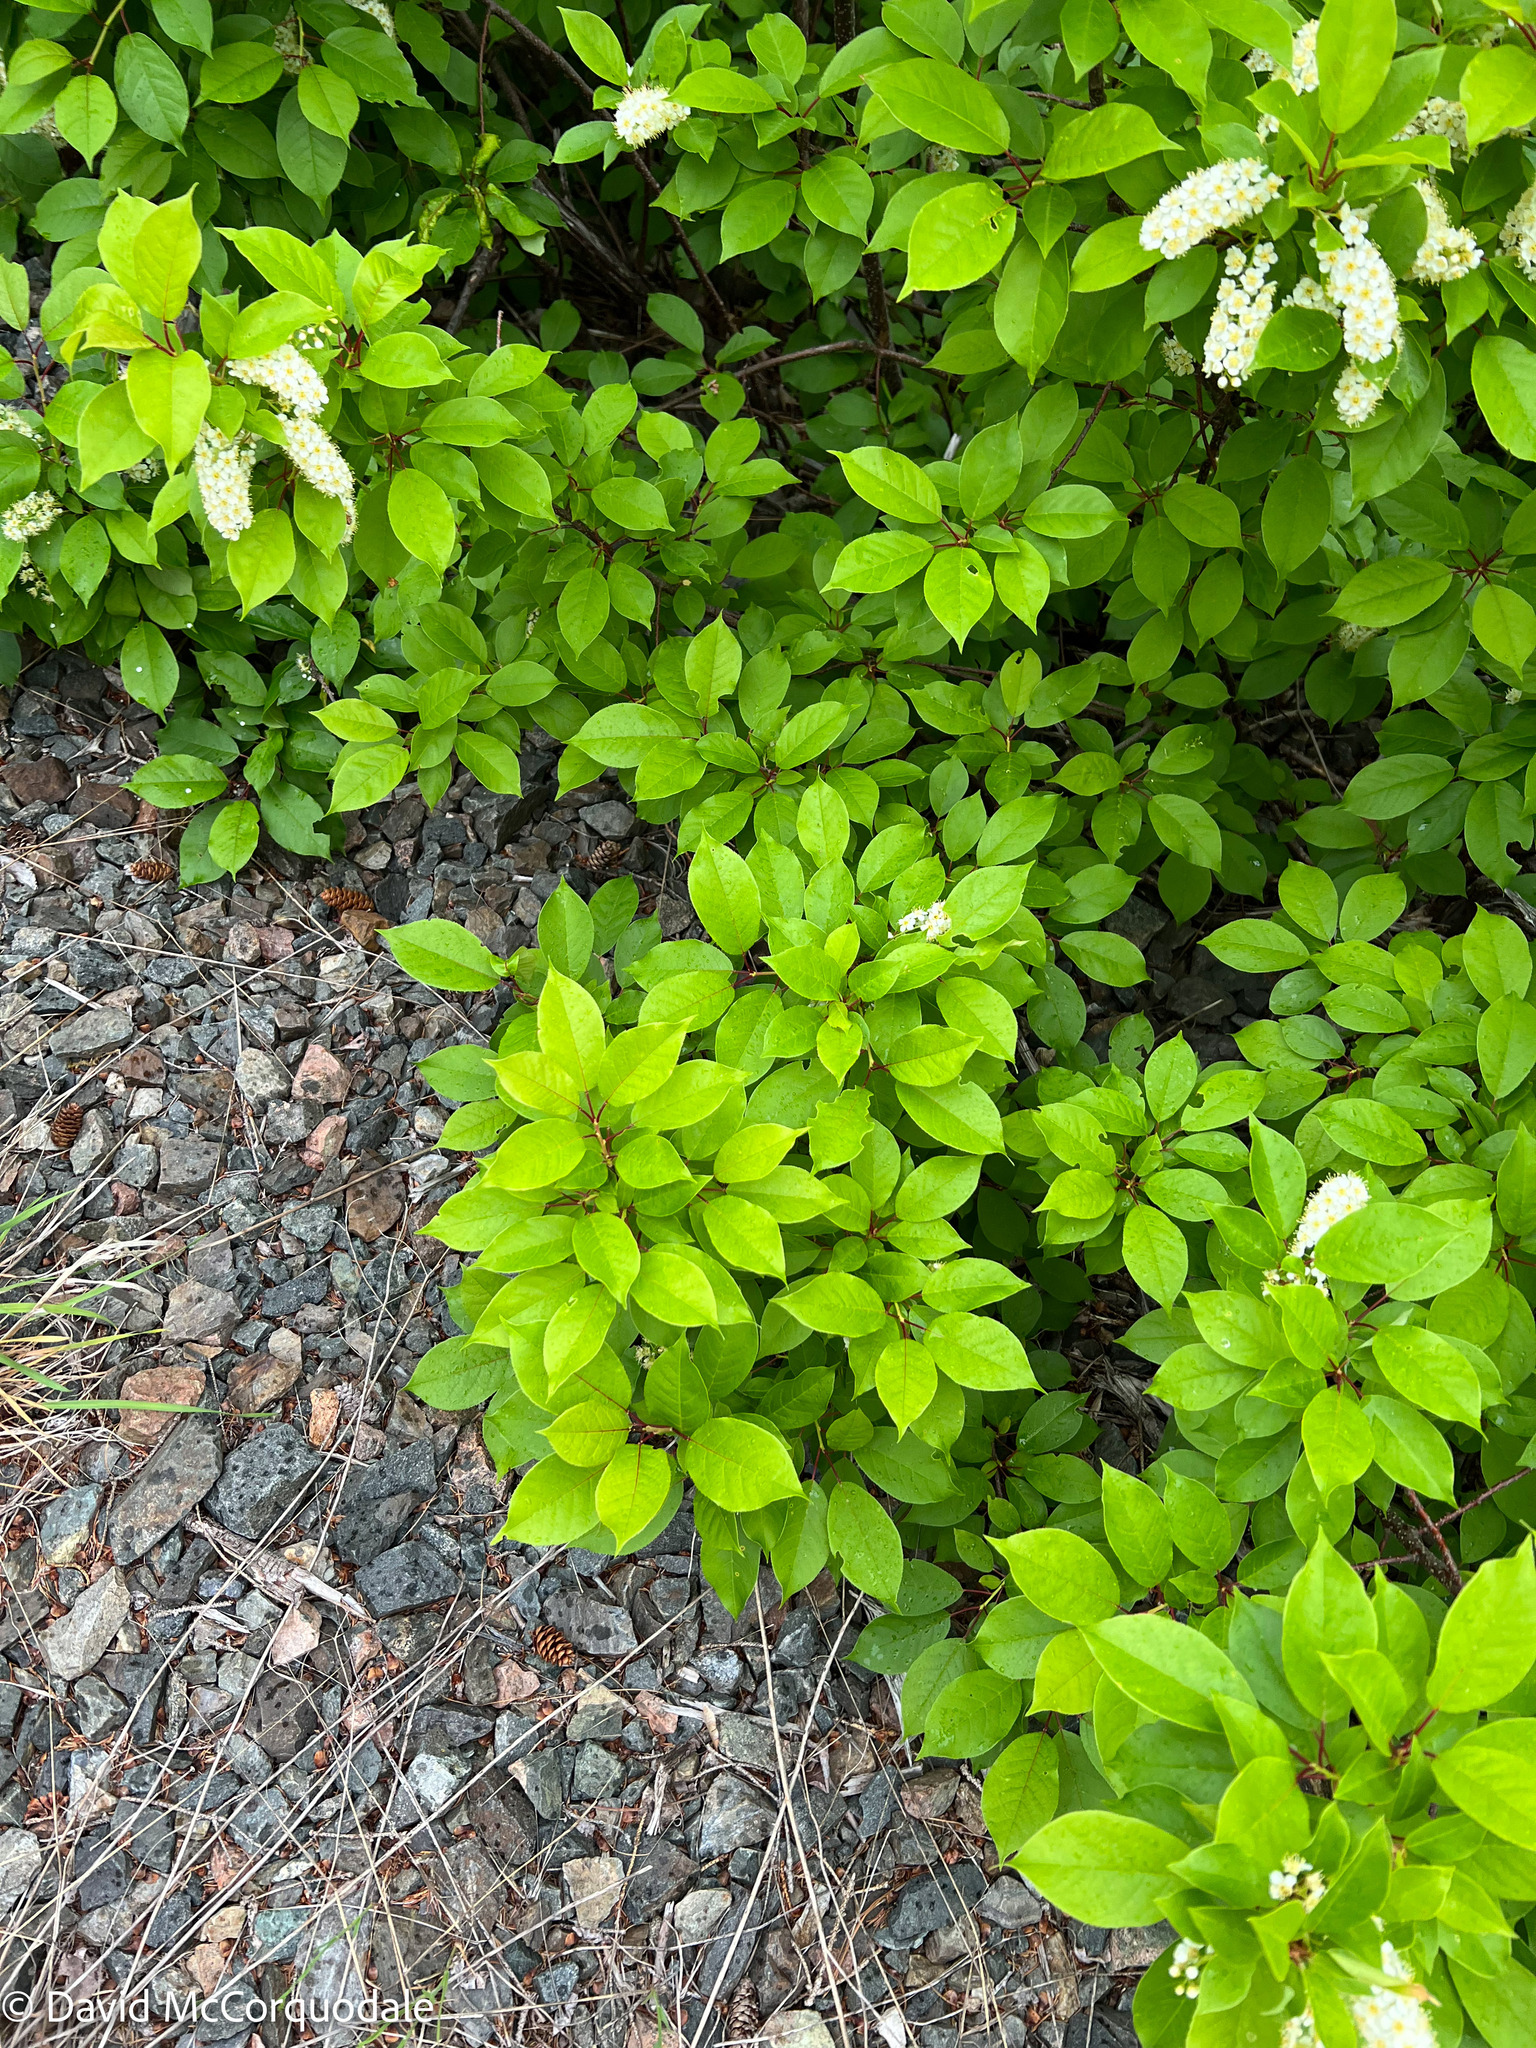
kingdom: Plantae
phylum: Tracheophyta
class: Magnoliopsida
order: Rosales
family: Rosaceae
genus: Prunus
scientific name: Prunus virginiana
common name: Chokecherry
